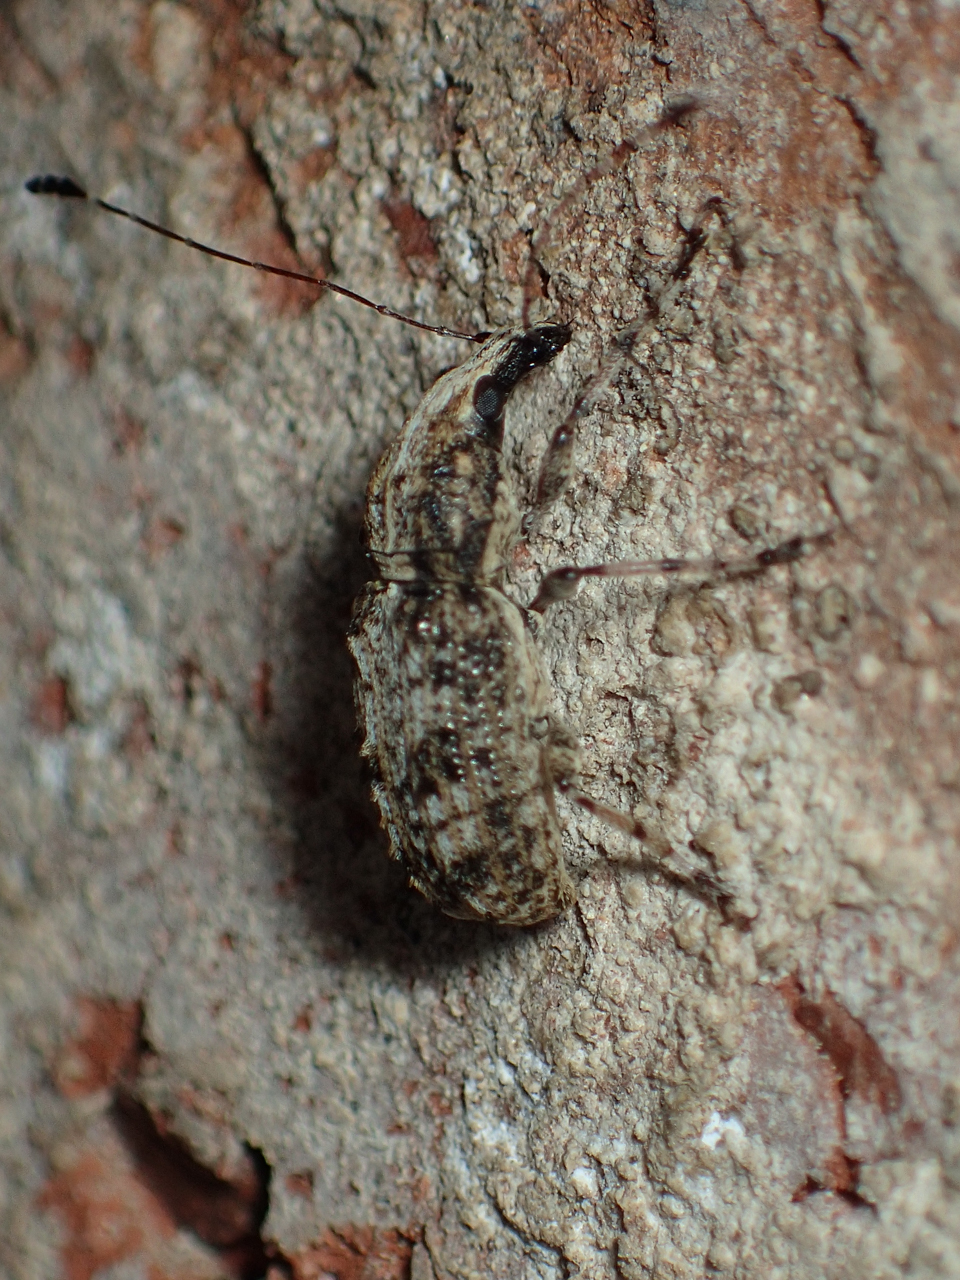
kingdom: Animalia
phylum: Arthropoda
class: Insecta
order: Coleoptera
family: Anthribidae
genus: Meconemus
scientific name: Meconemus infuscatus
